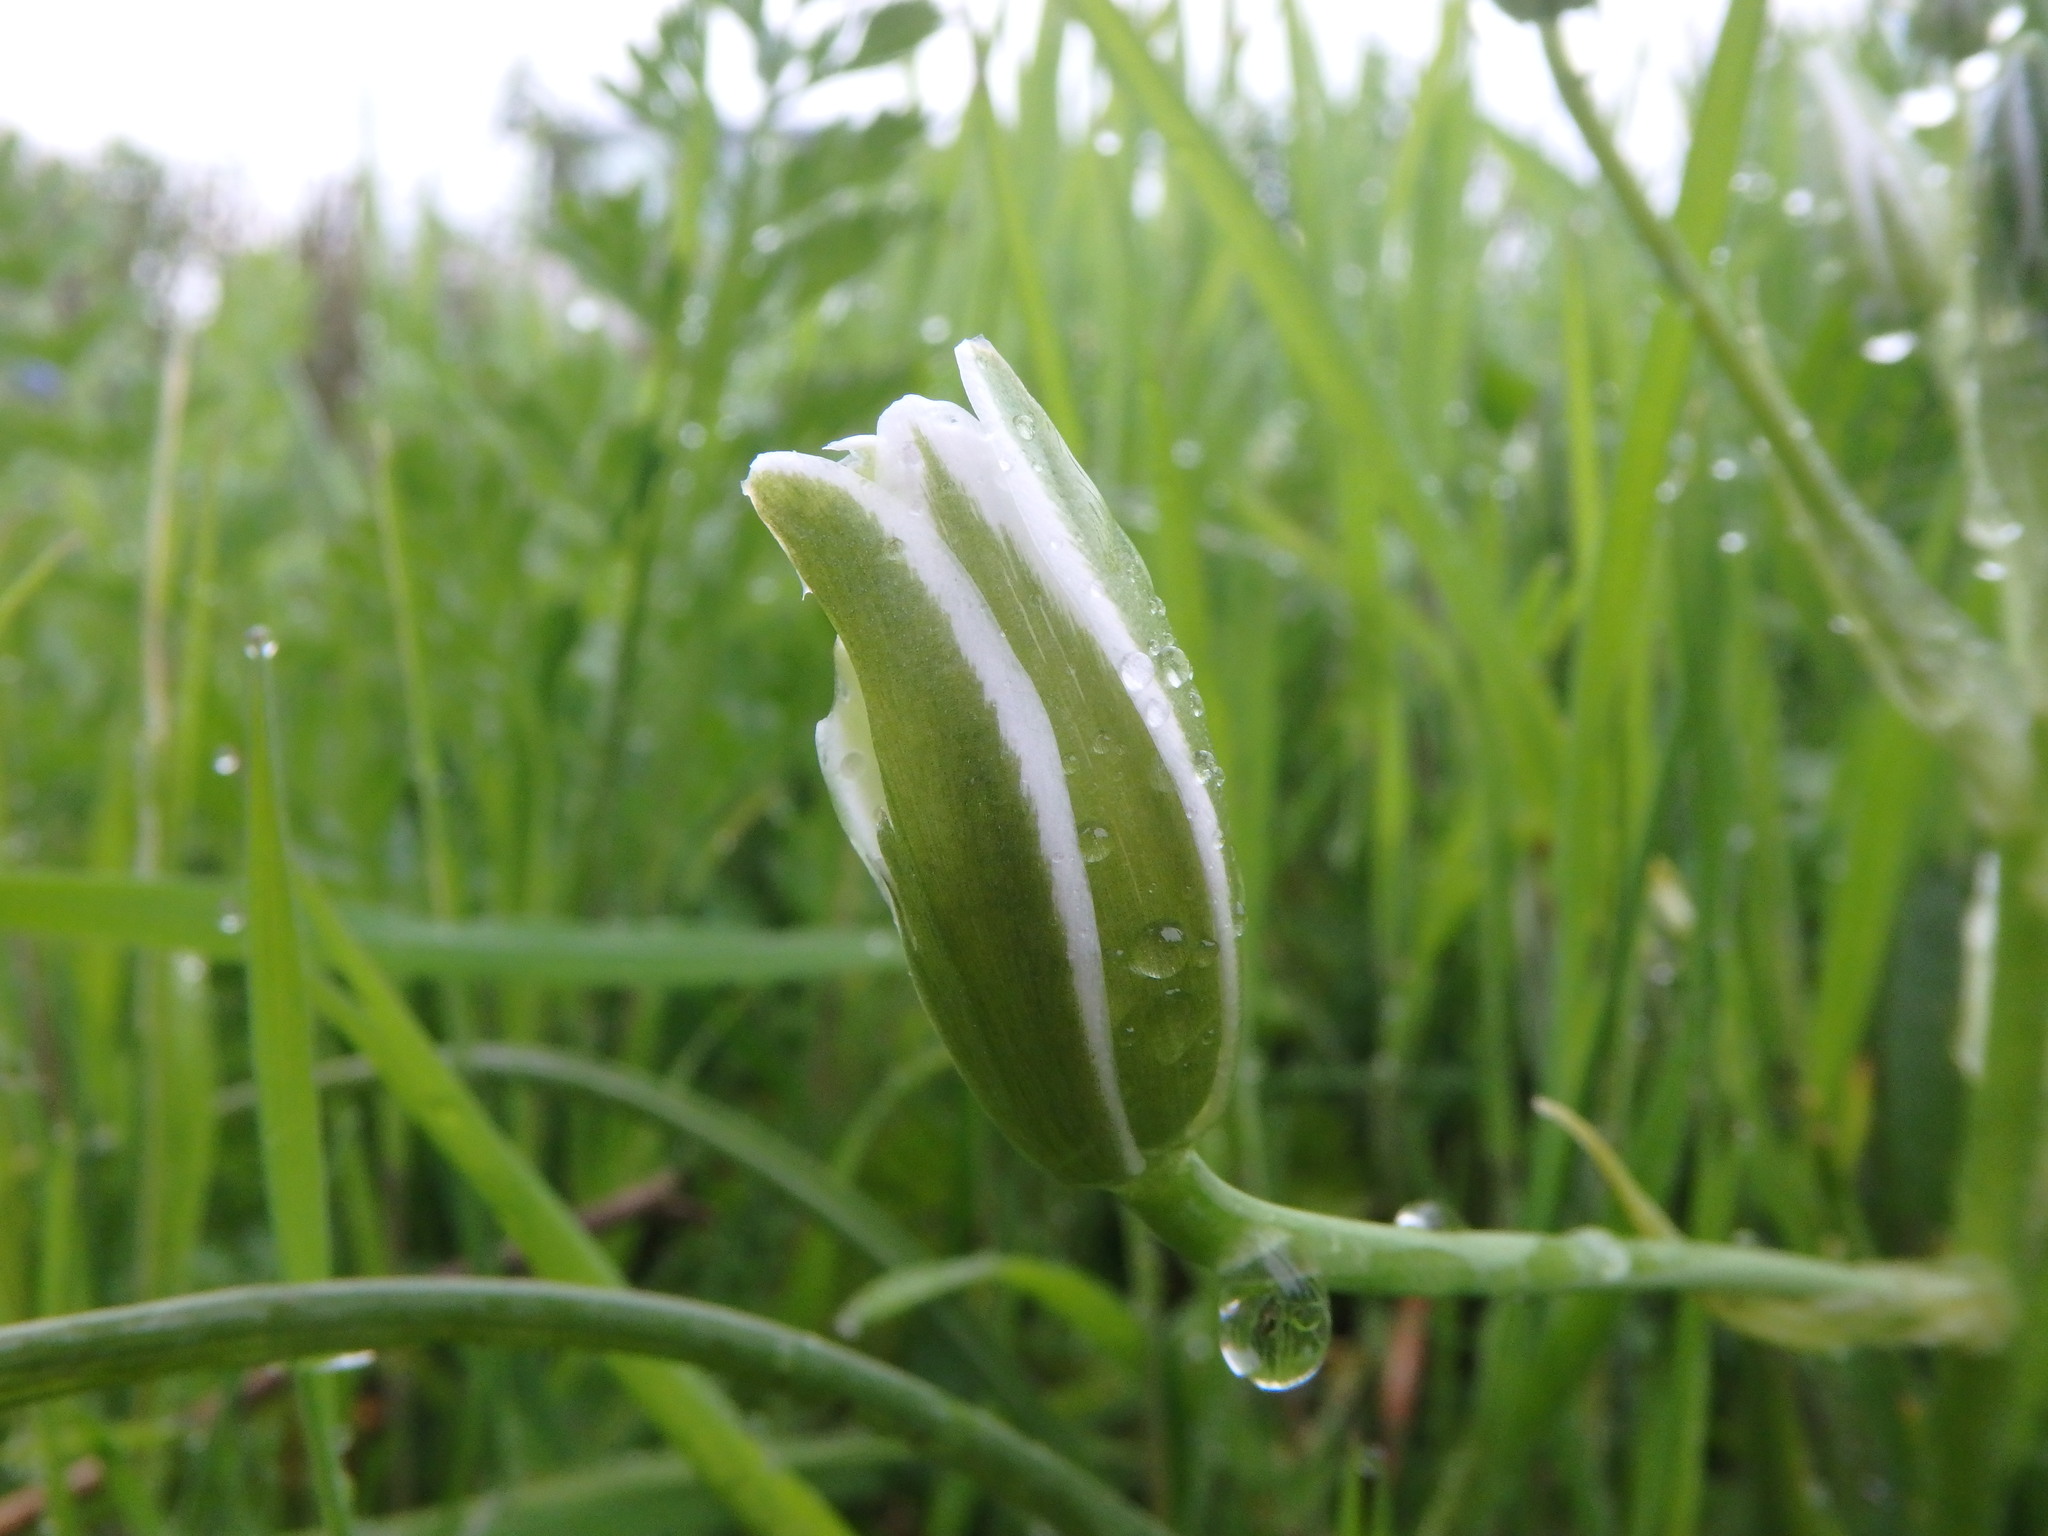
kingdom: Plantae
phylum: Tracheophyta
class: Liliopsida
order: Asparagales
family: Asparagaceae
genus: Ornithogalum
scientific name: Ornithogalum umbellatum
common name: Garden star-of-bethlehem
